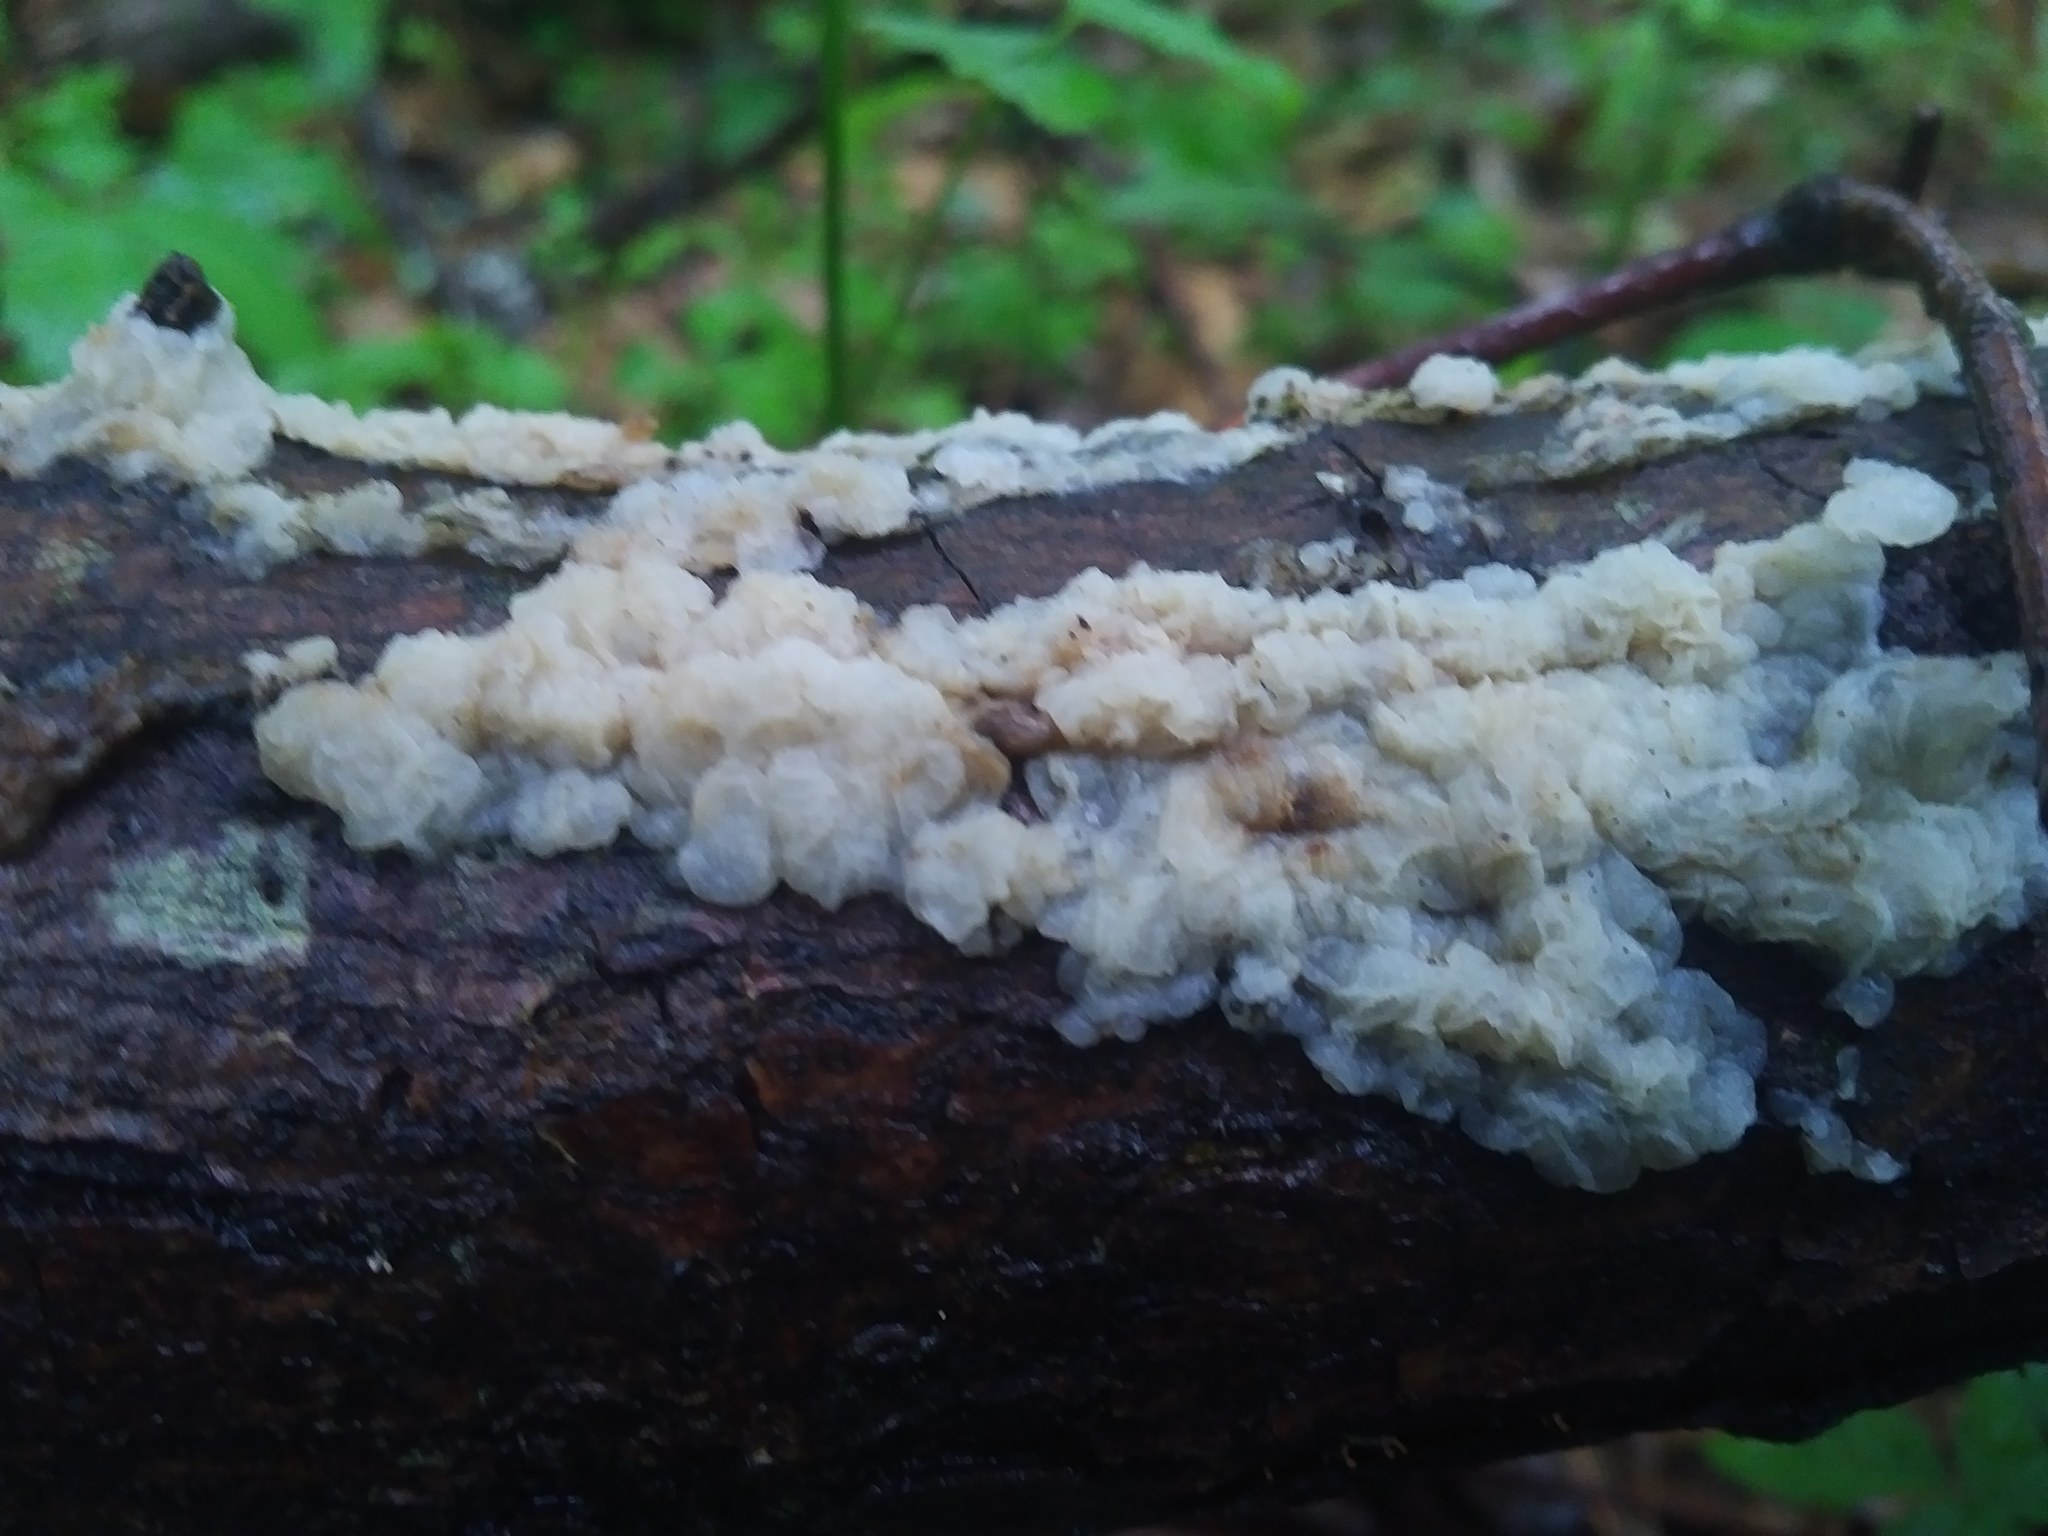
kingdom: Fungi
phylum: Basidiomycota
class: Agaricomycetes
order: Auriculariales
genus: Ductifera
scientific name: Ductifera pululahuana
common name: White jelly fungus
